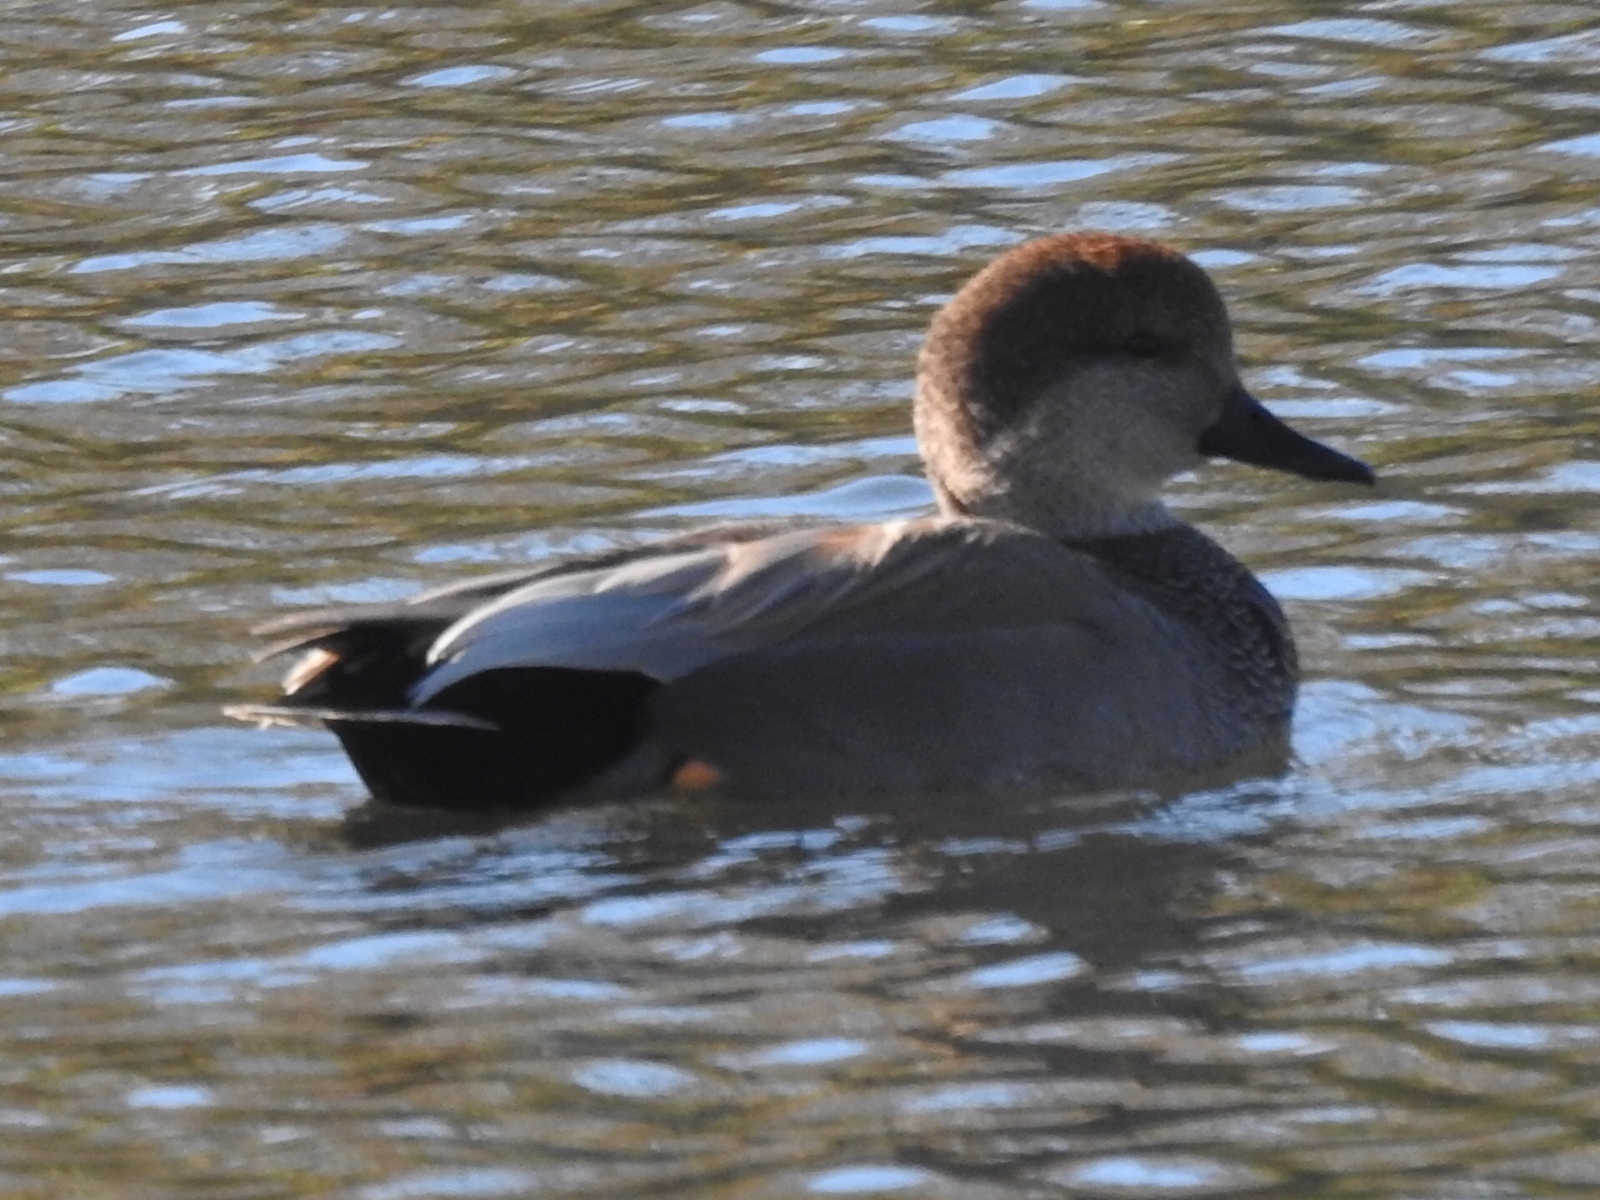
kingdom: Animalia
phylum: Chordata
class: Aves
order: Anseriformes
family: Anatidae
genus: Mareca
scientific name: Mareca strepera
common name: Gadwall
